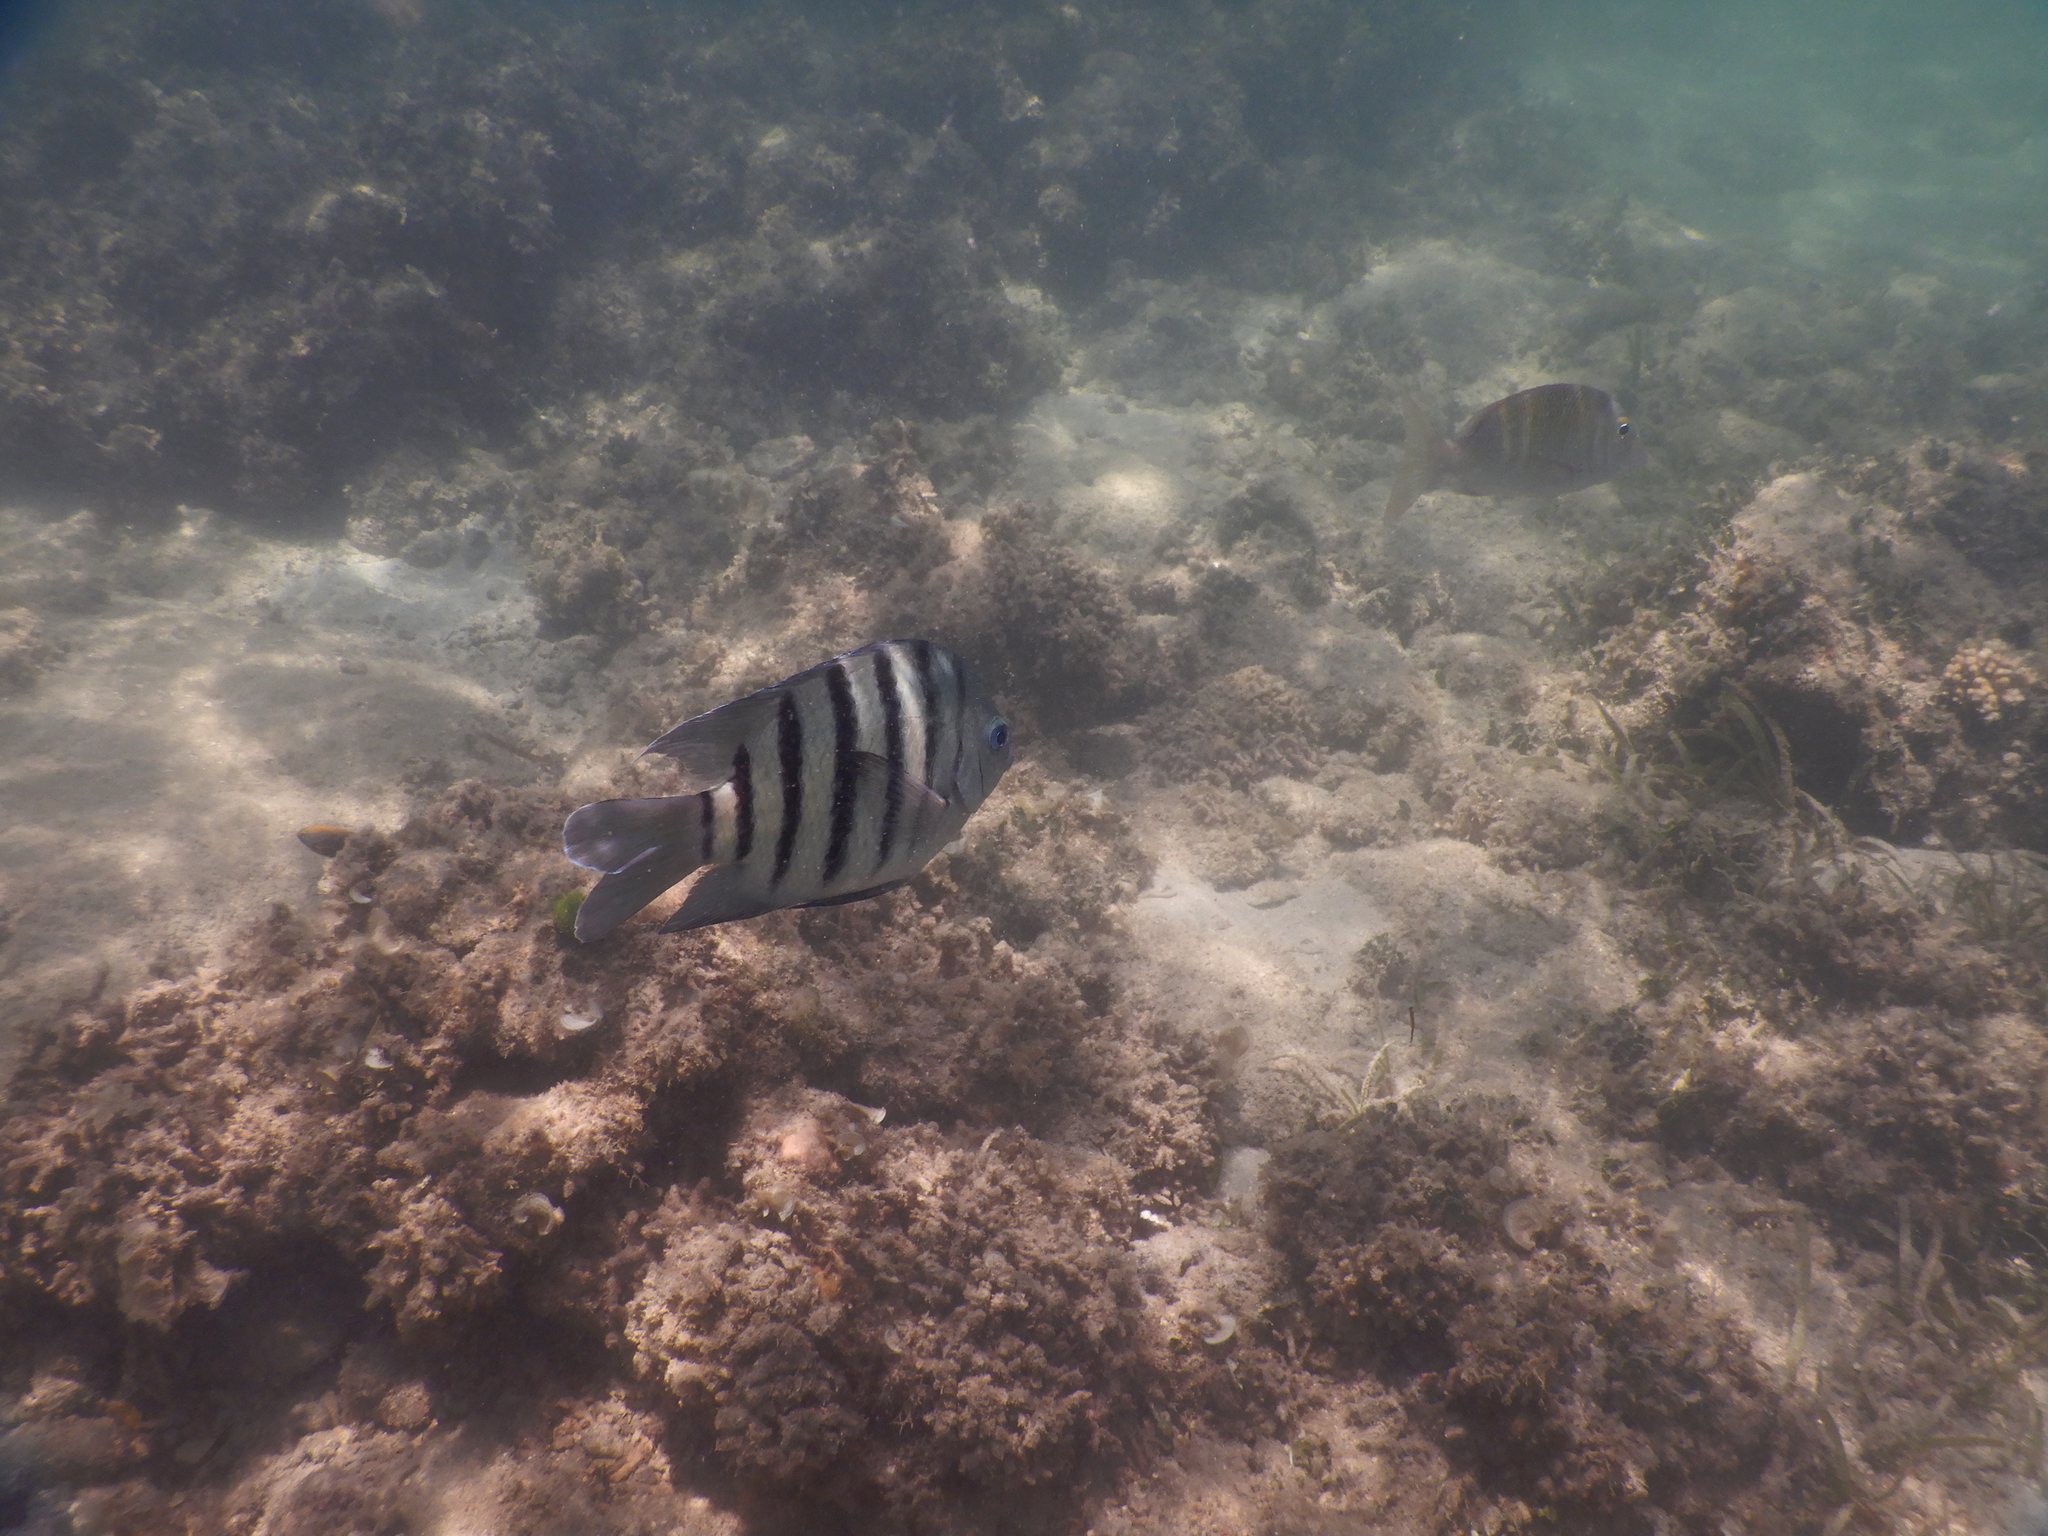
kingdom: Animalia
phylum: Chordata
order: Perciformes
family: Pomacentridae
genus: Abudefduf
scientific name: Abudefduf bengalensis
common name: Bengal sergeant
